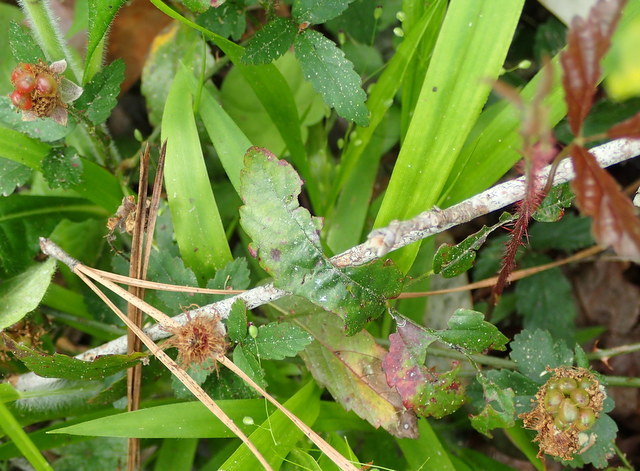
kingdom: Plantae
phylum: Tracheophyta
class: Magnoliopsida
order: Rosales
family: Rosaceae
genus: Rubus
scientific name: Rubus trivialis
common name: Southern dewberry
